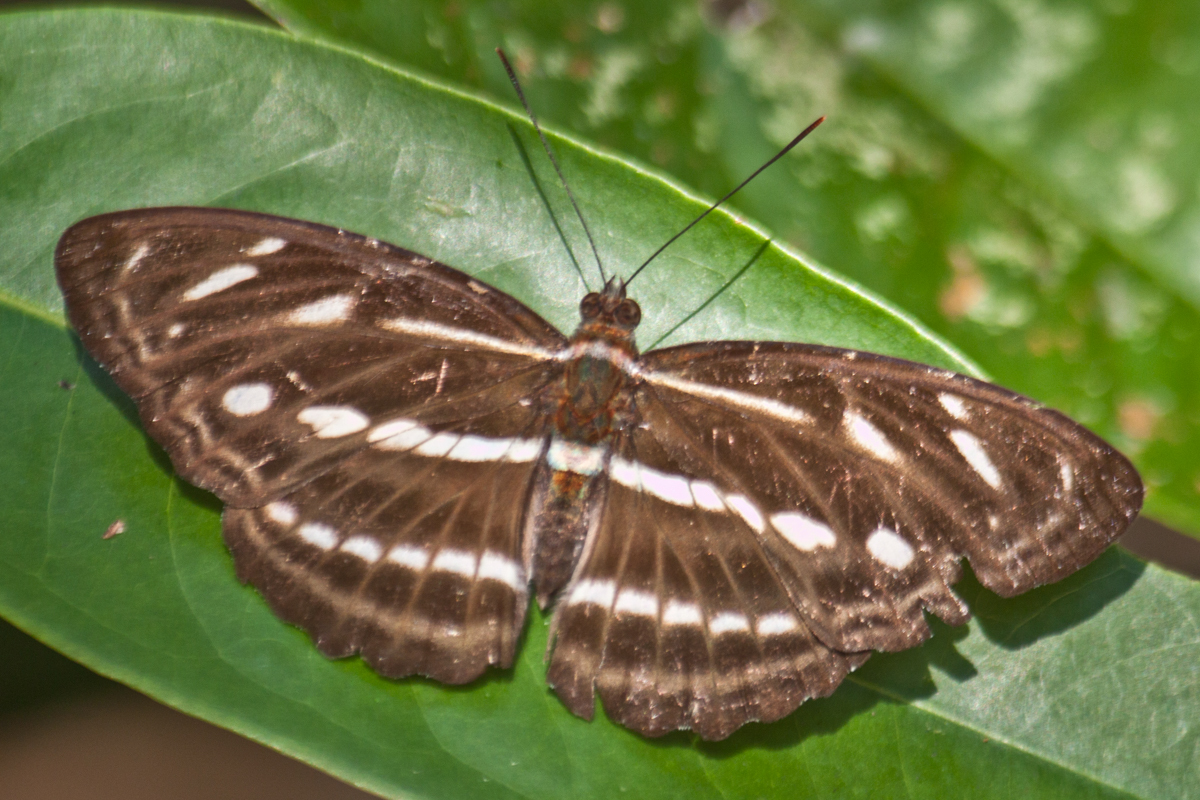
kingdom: Animalia
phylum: Arthropoda
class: Insecta
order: Lepidoptera
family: Nymphalidae
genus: Parathyma
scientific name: Parathyma kanwa
